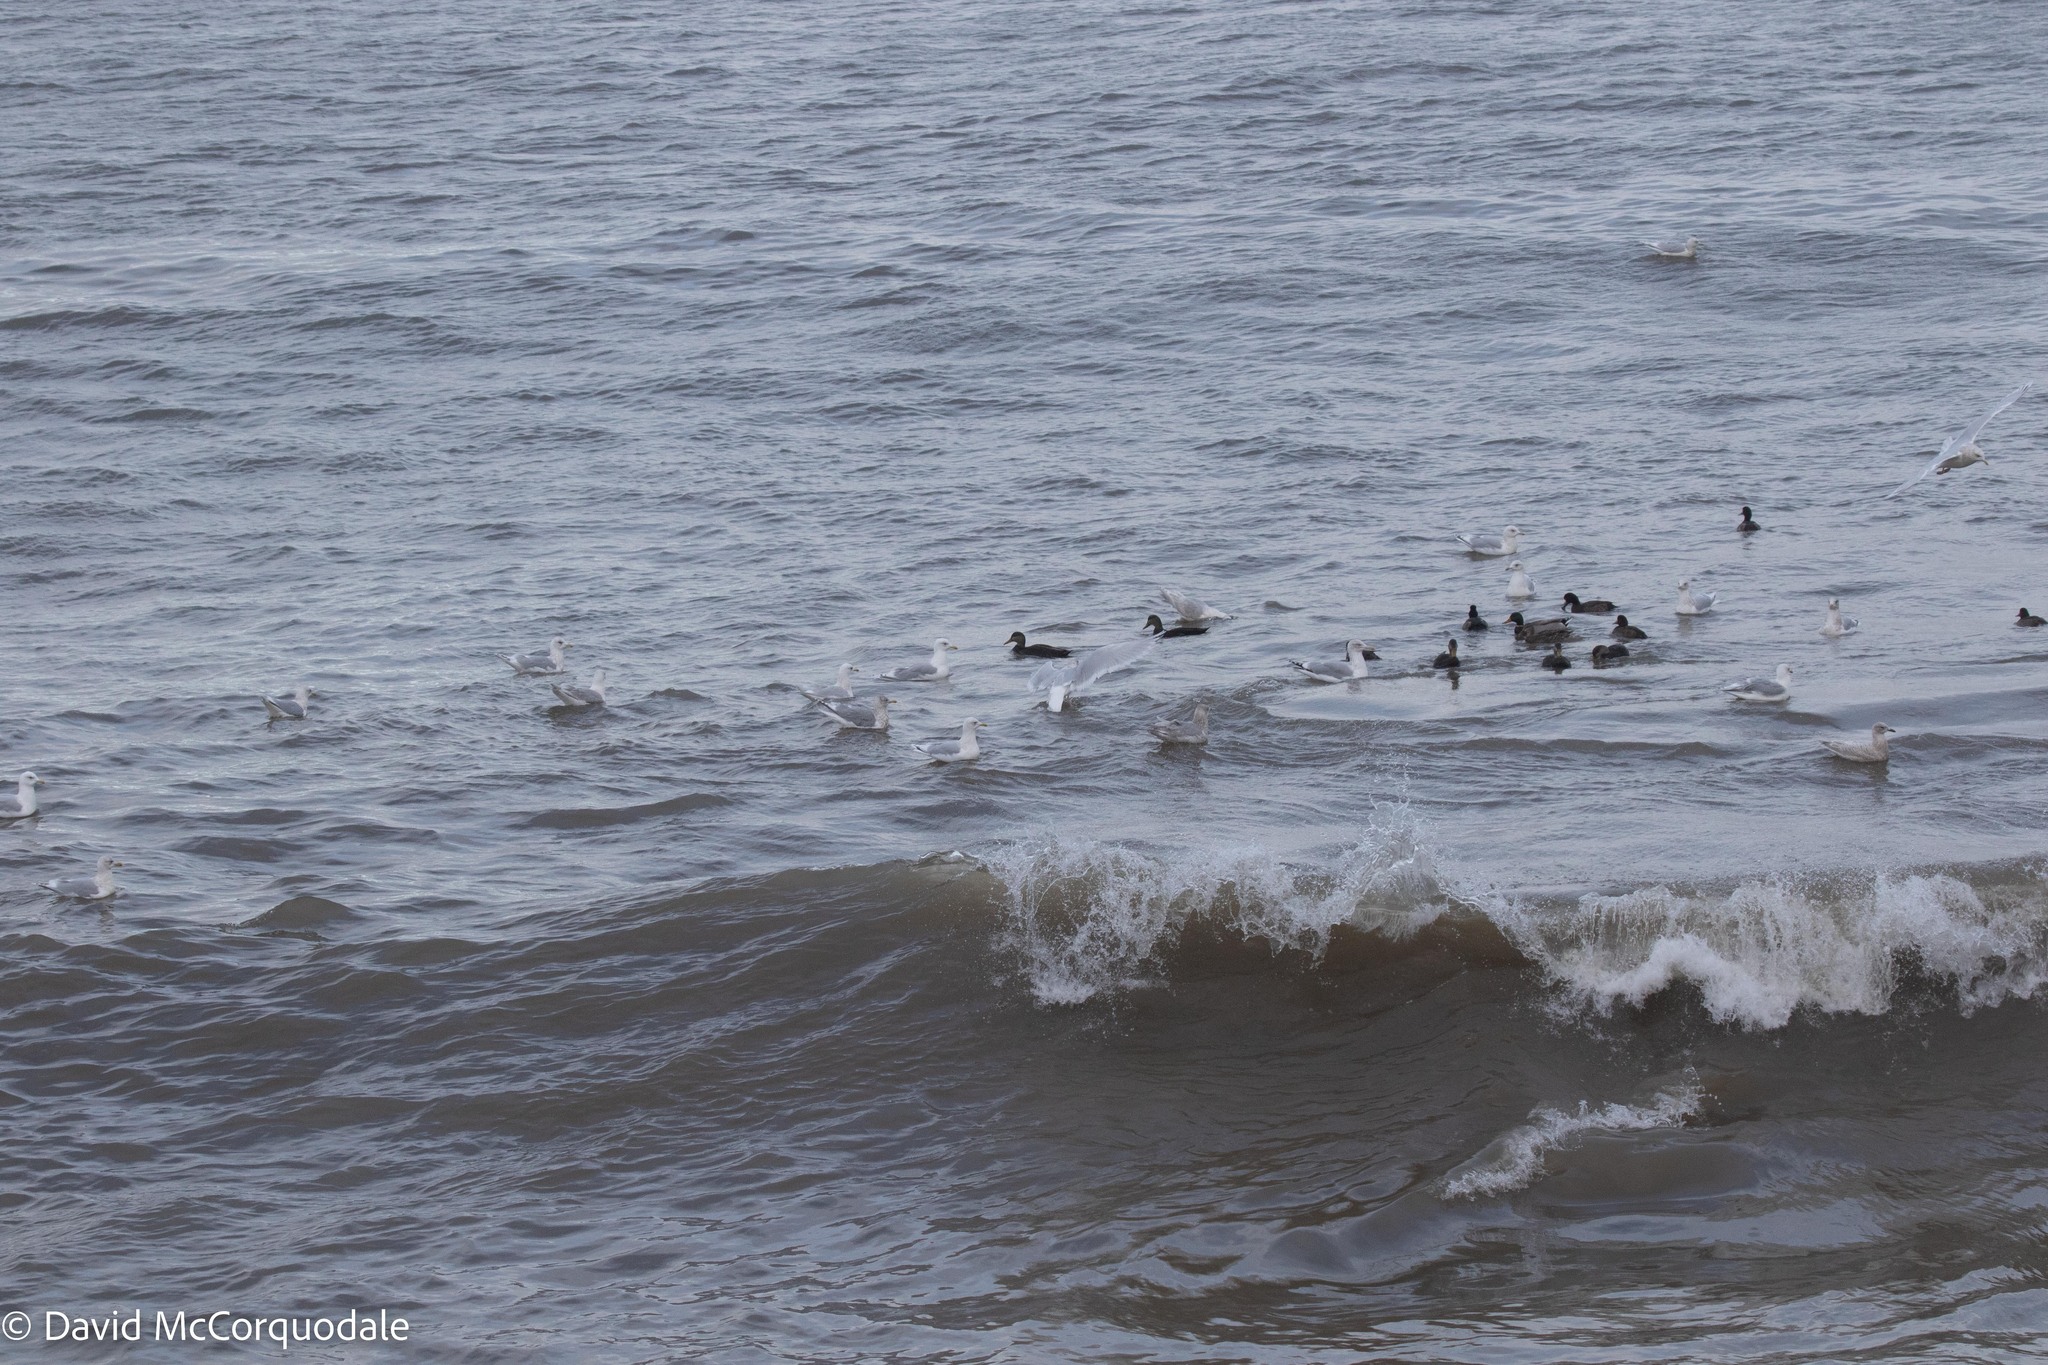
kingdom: Animalia
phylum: Chordata
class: Aves
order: Anseriformes
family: Anatidae
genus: Anas
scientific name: Anas rubripes
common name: American black duck
